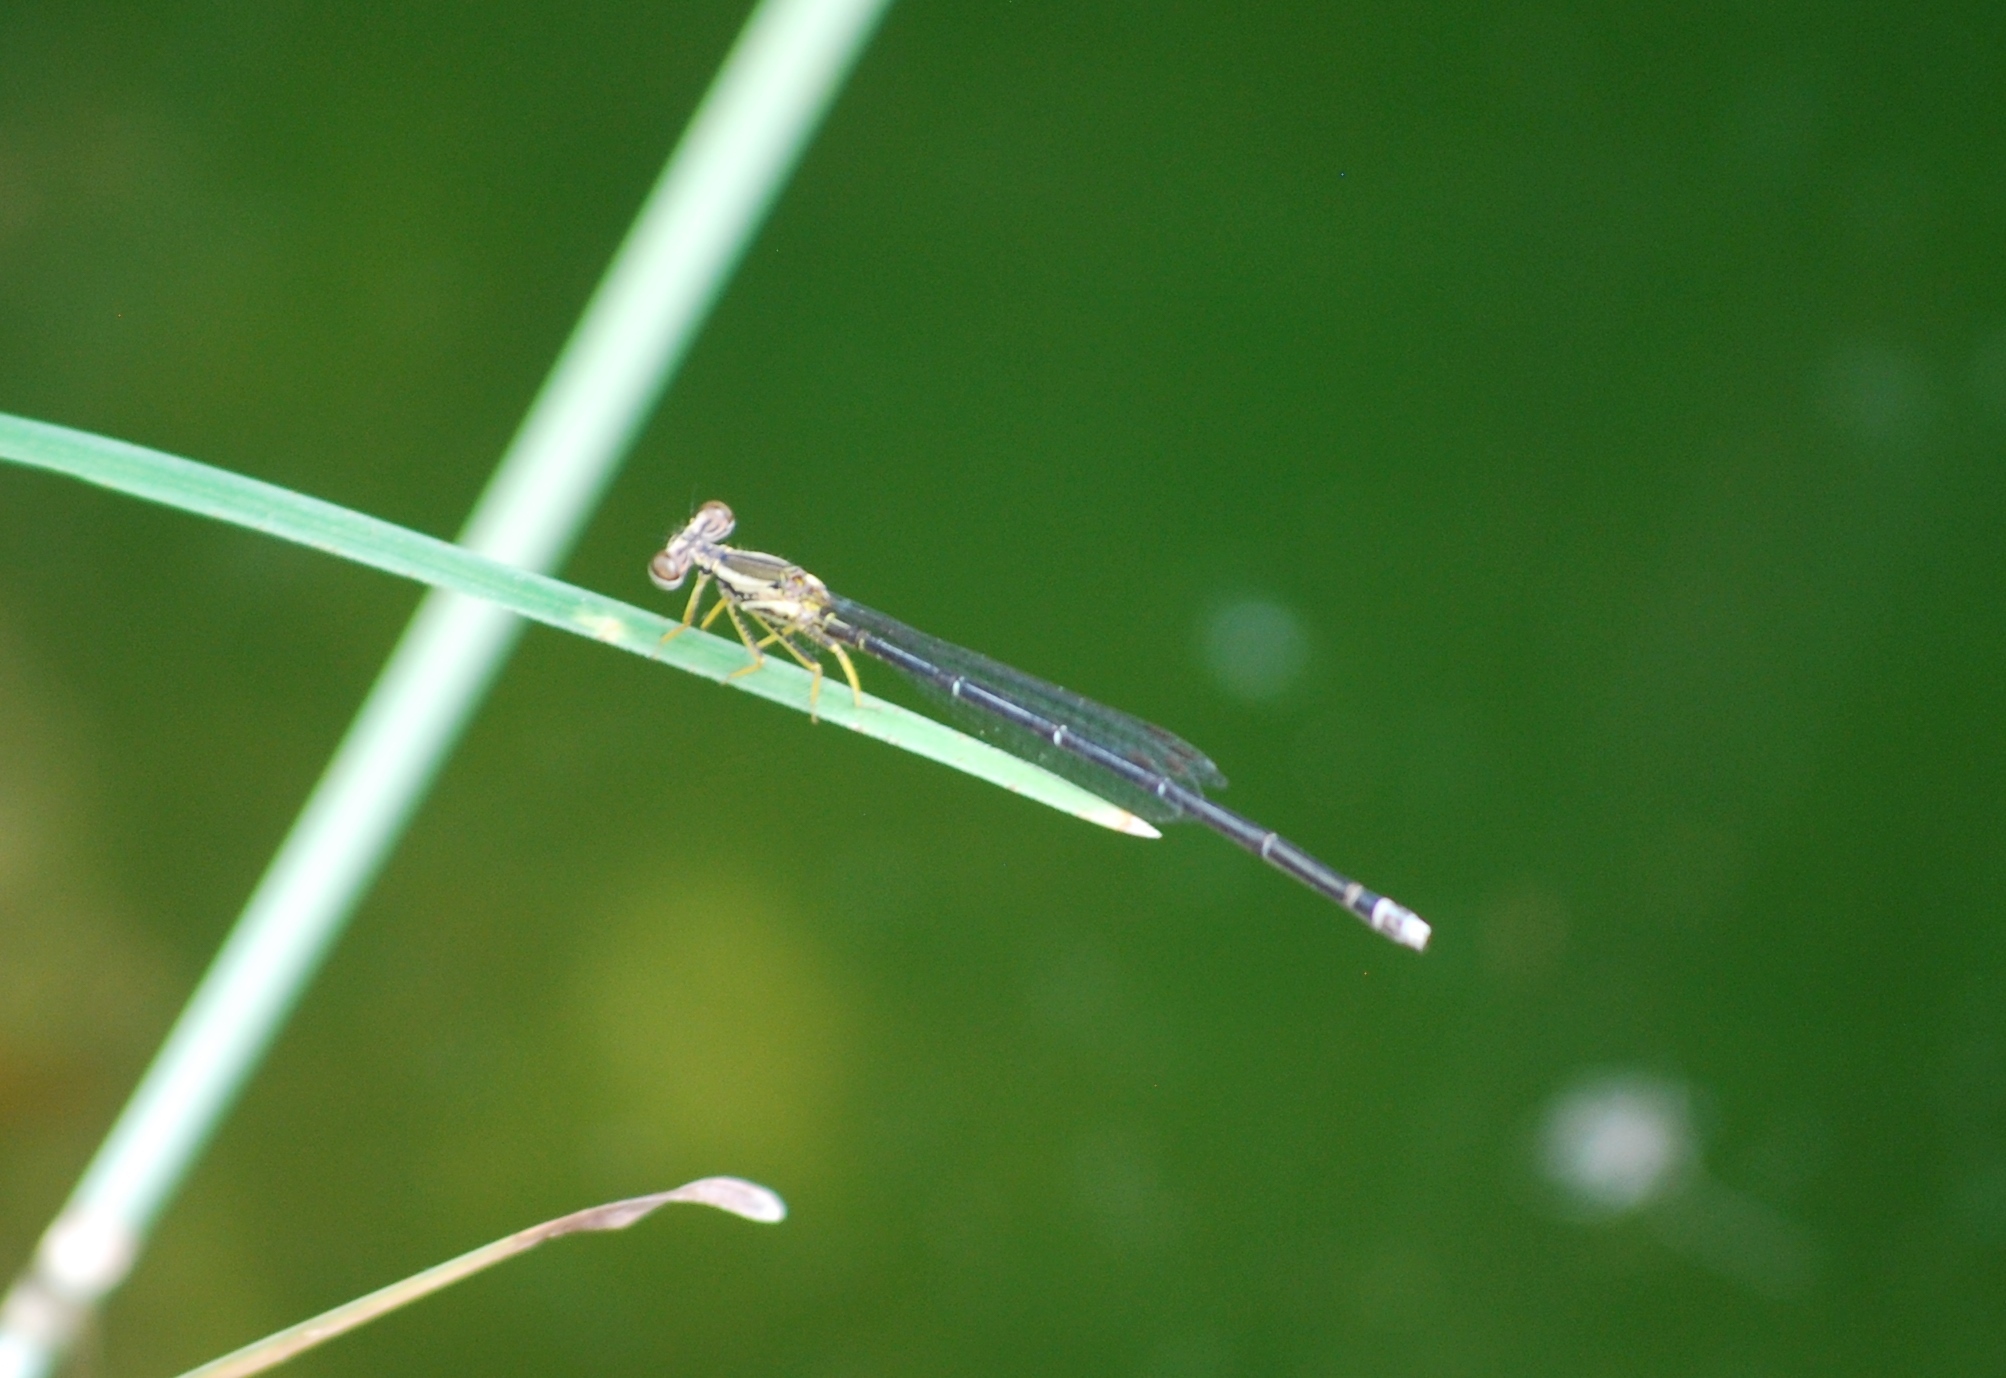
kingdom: Animalia
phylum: Arthropoda
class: Insecta
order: Odonata
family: Platycnemididae
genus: Copera
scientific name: Copera marginipes
